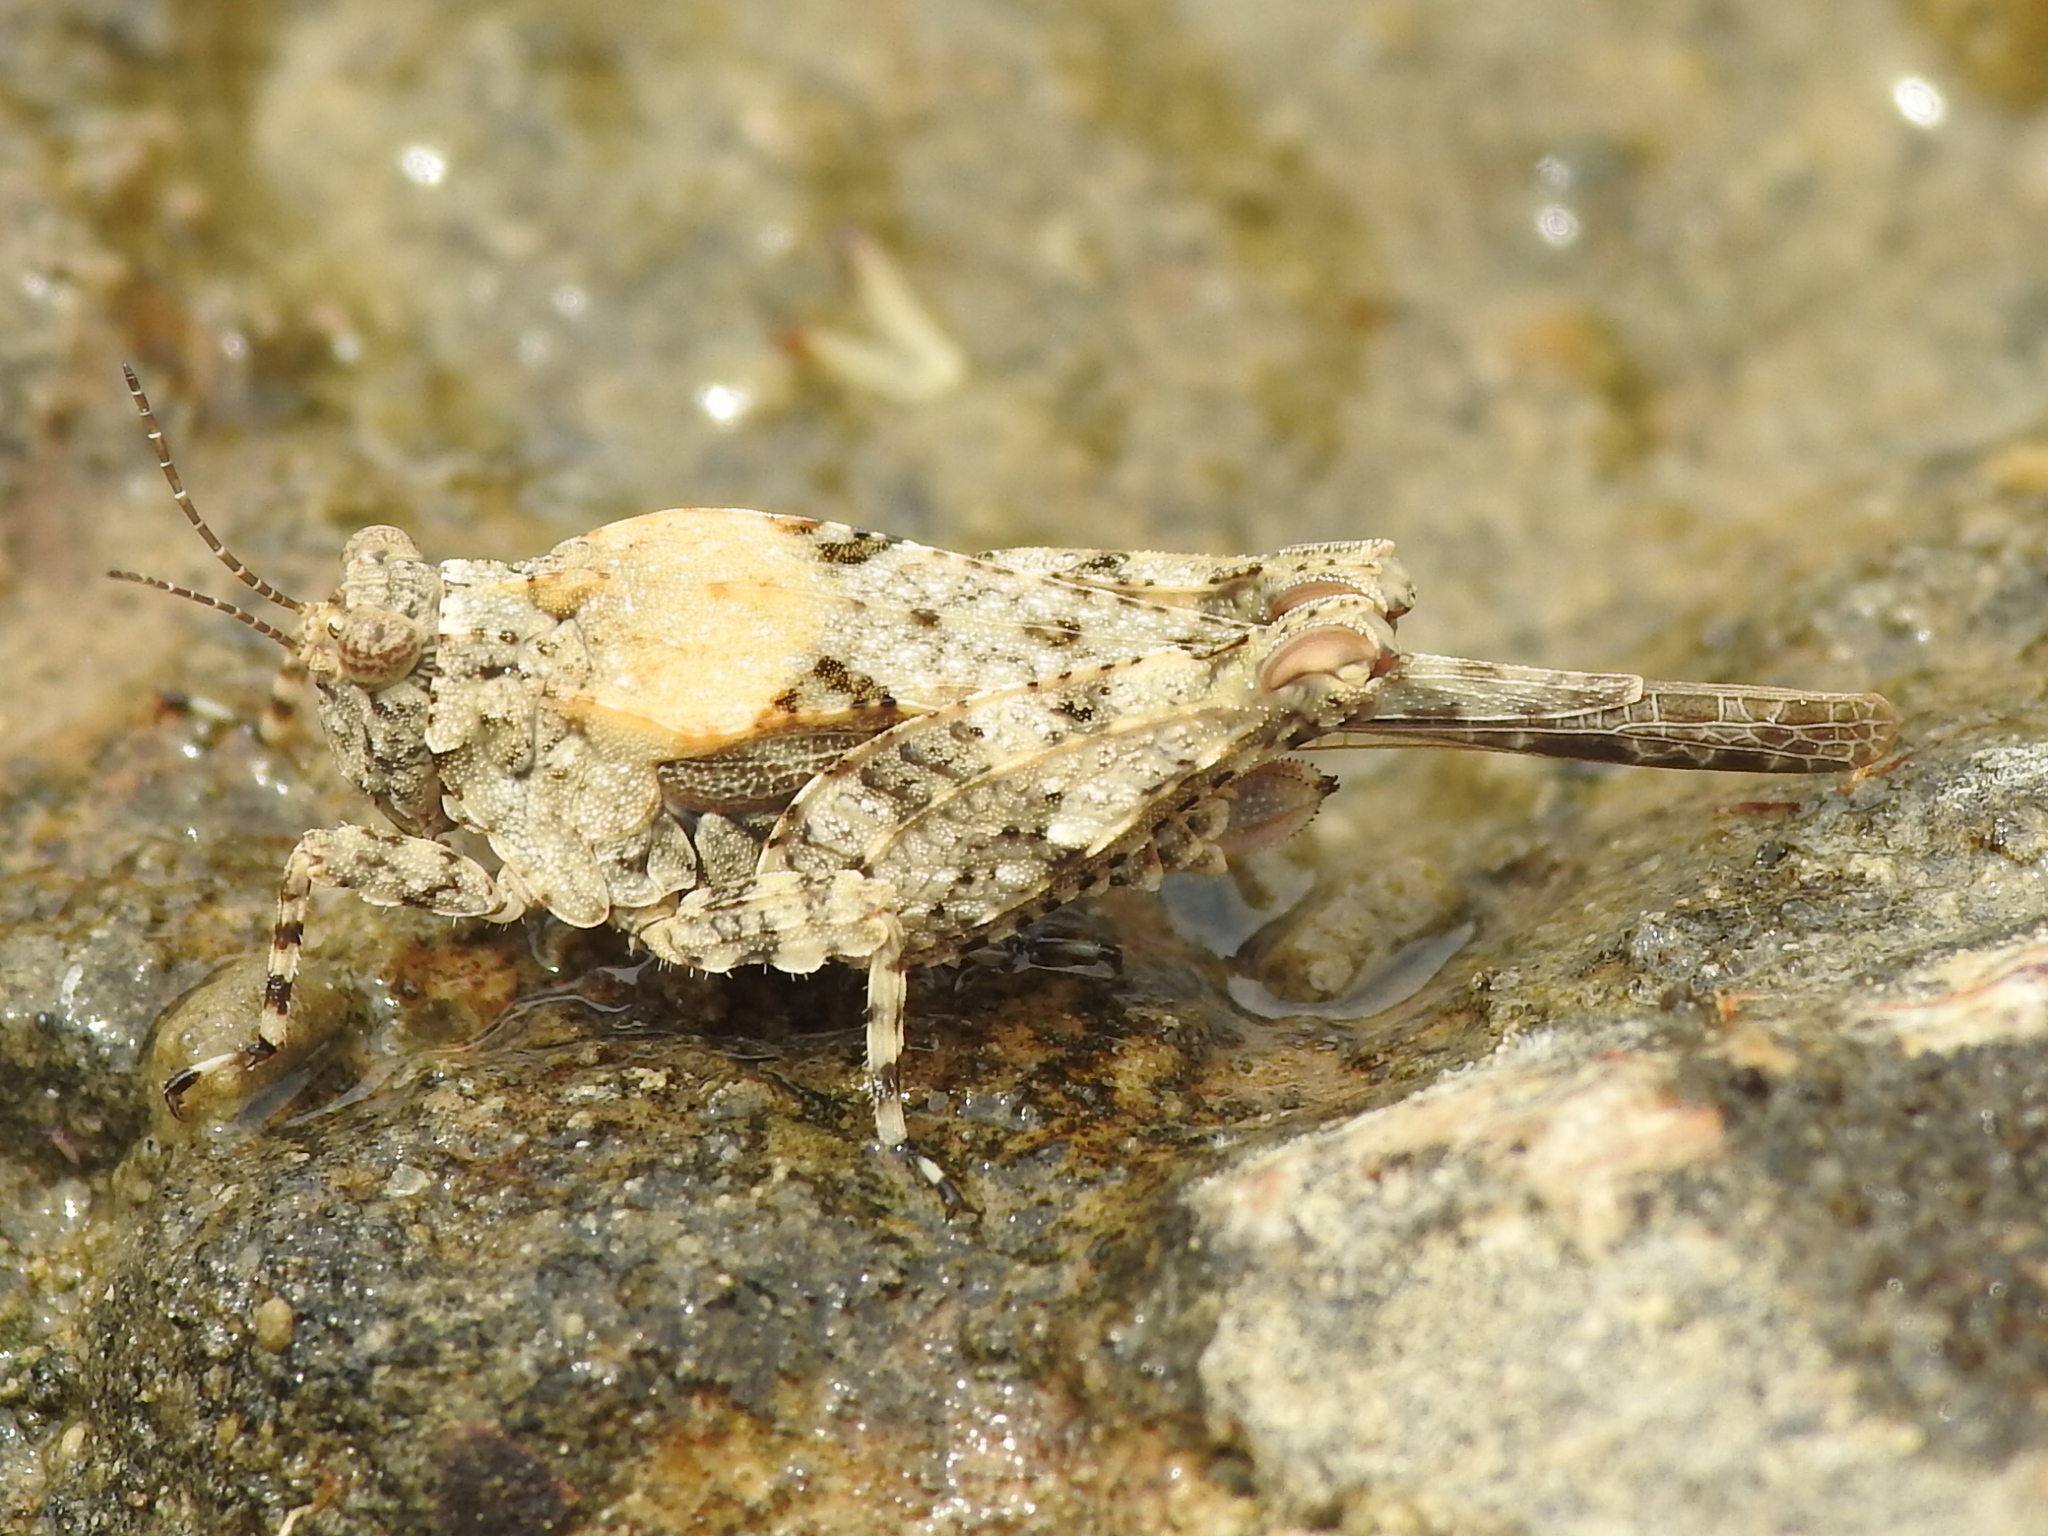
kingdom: Animalia
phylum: Arthropoda
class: Insecta
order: Orthoptera
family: Tetrigidae
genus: Paratettix
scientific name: Paratettix mexicanus
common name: Mexican pygmy grasshopper
